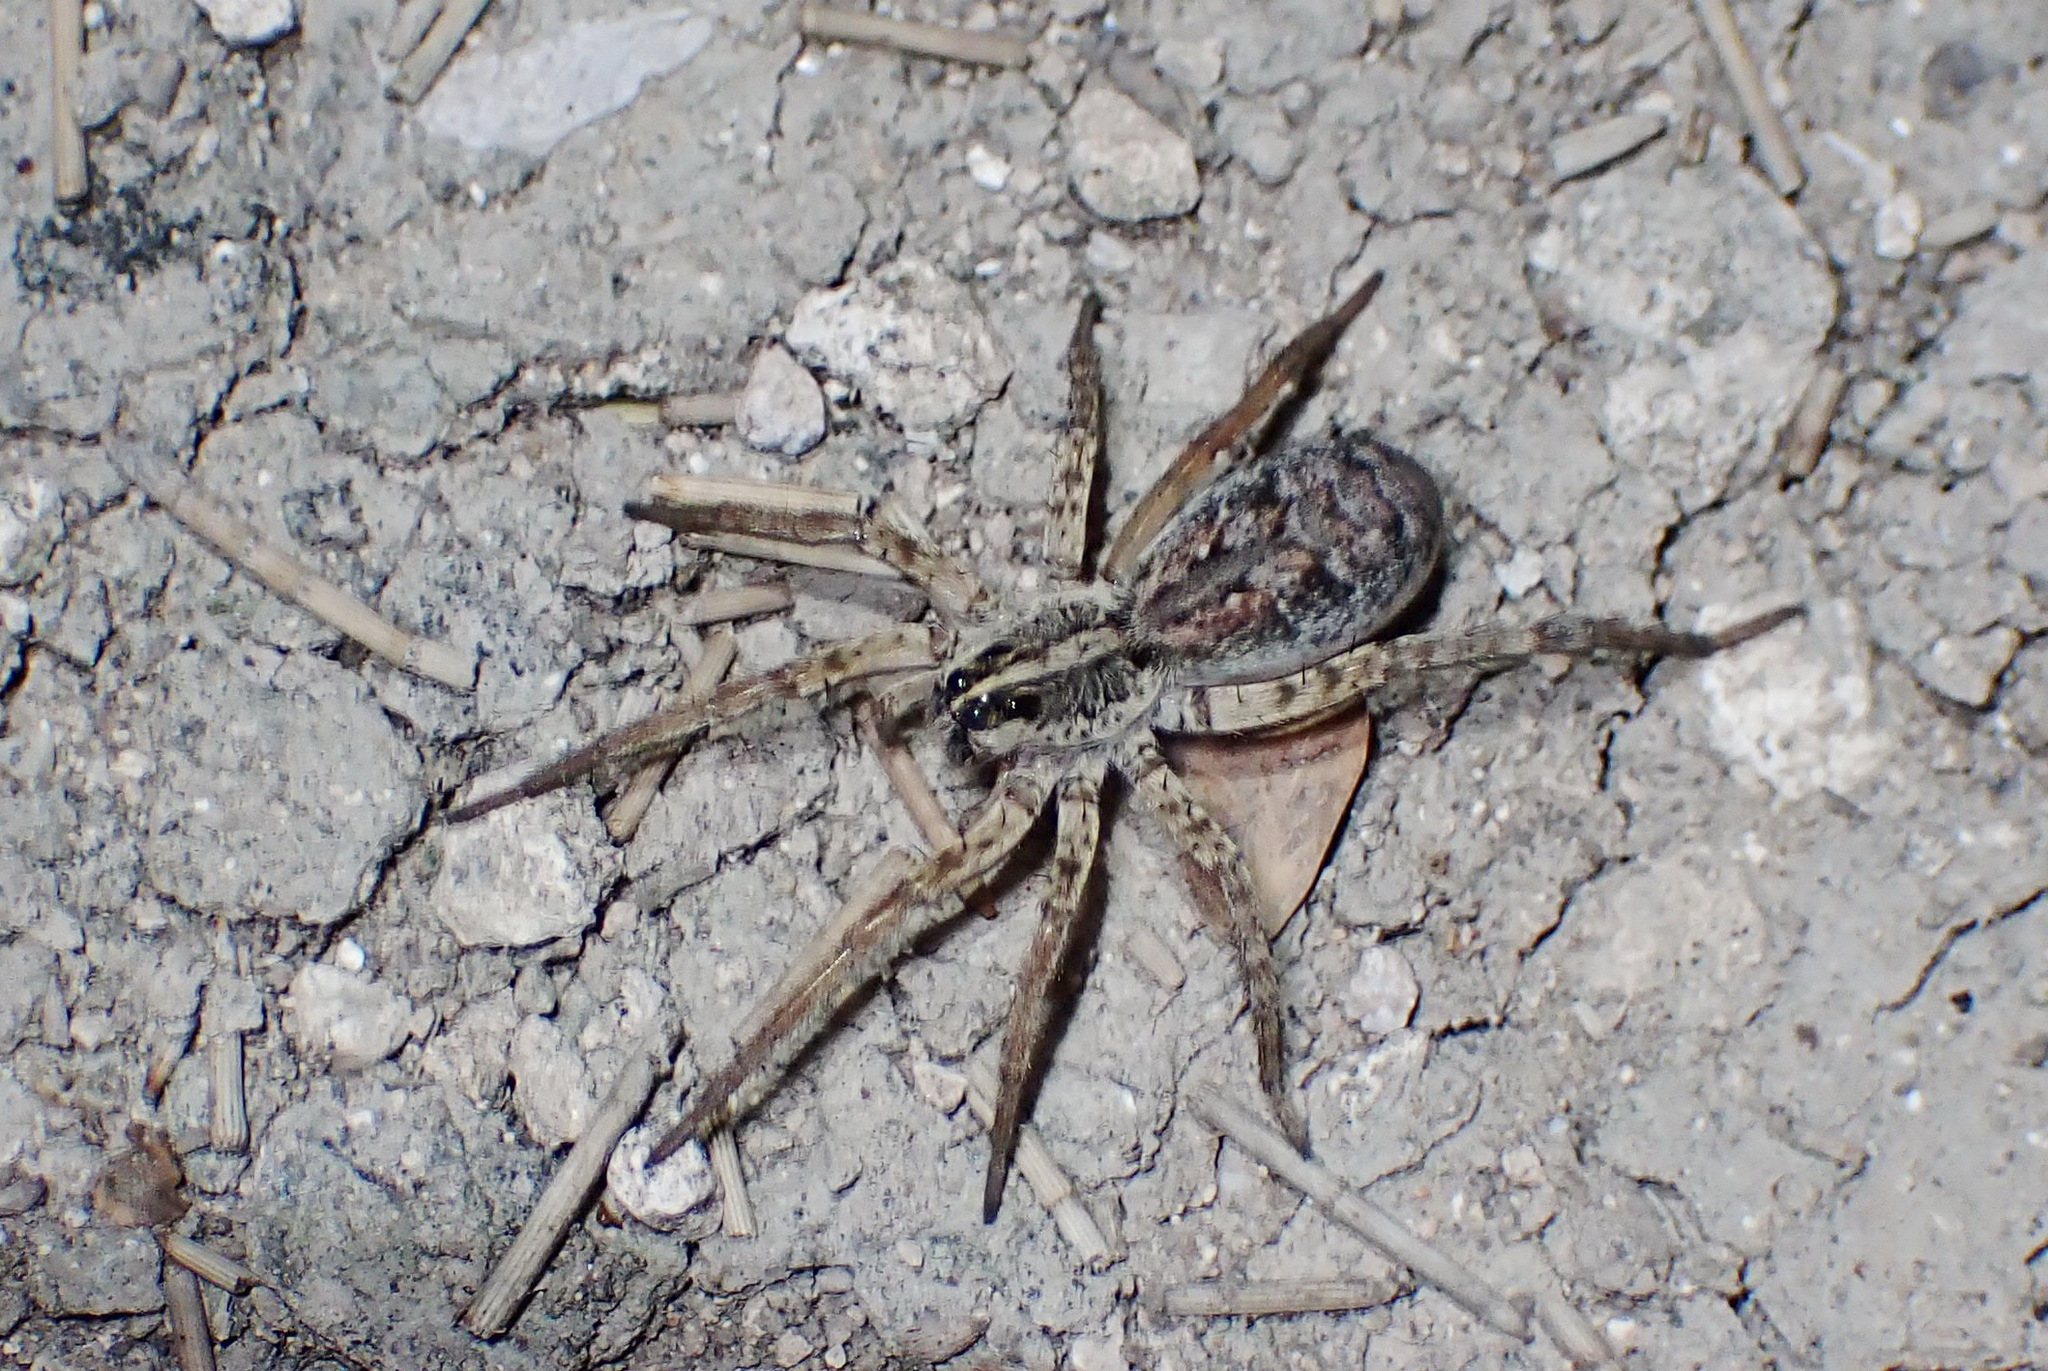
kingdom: Animalia
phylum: Arthropoda
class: Arachnida
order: Araneae
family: Lycosidae
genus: Hogna
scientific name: Hogna antelucana
